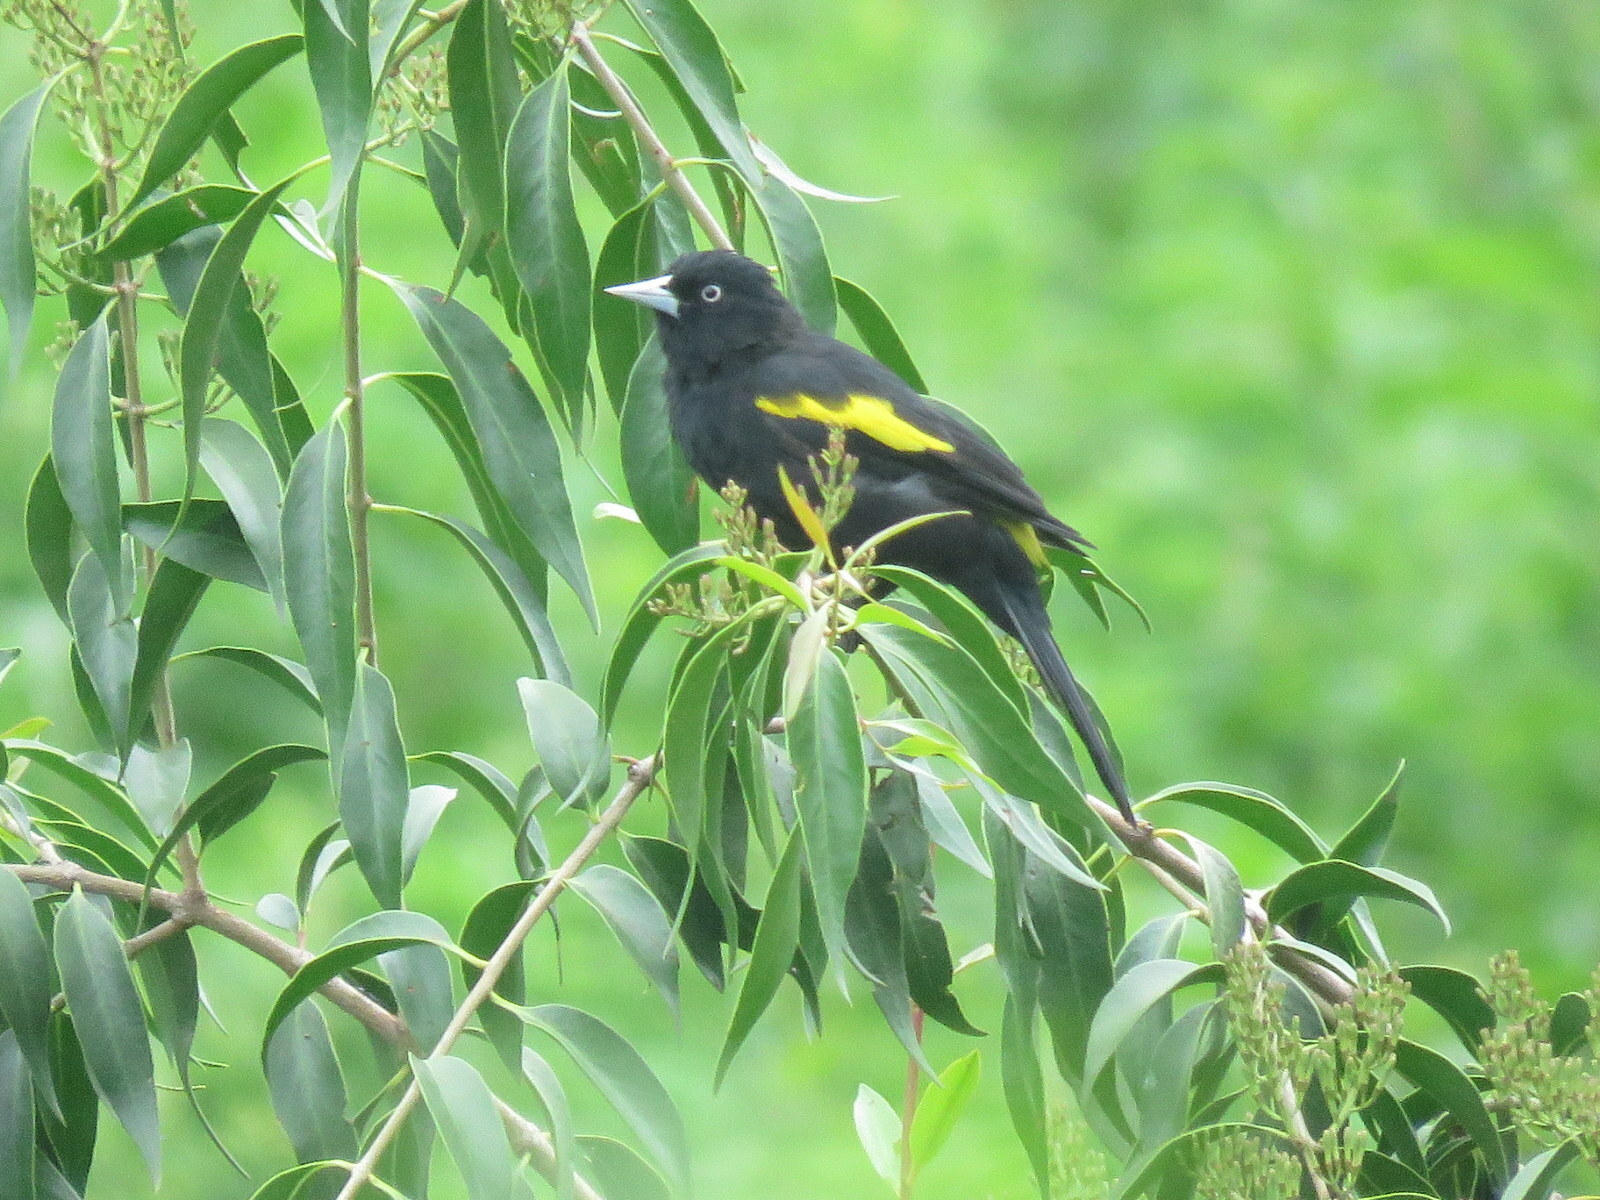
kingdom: Animalia
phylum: Chordata
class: Aves
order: Passeriformes
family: Icteridae
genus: Cacicus
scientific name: Cacicus chrysopterus
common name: Golden-winged cacique
